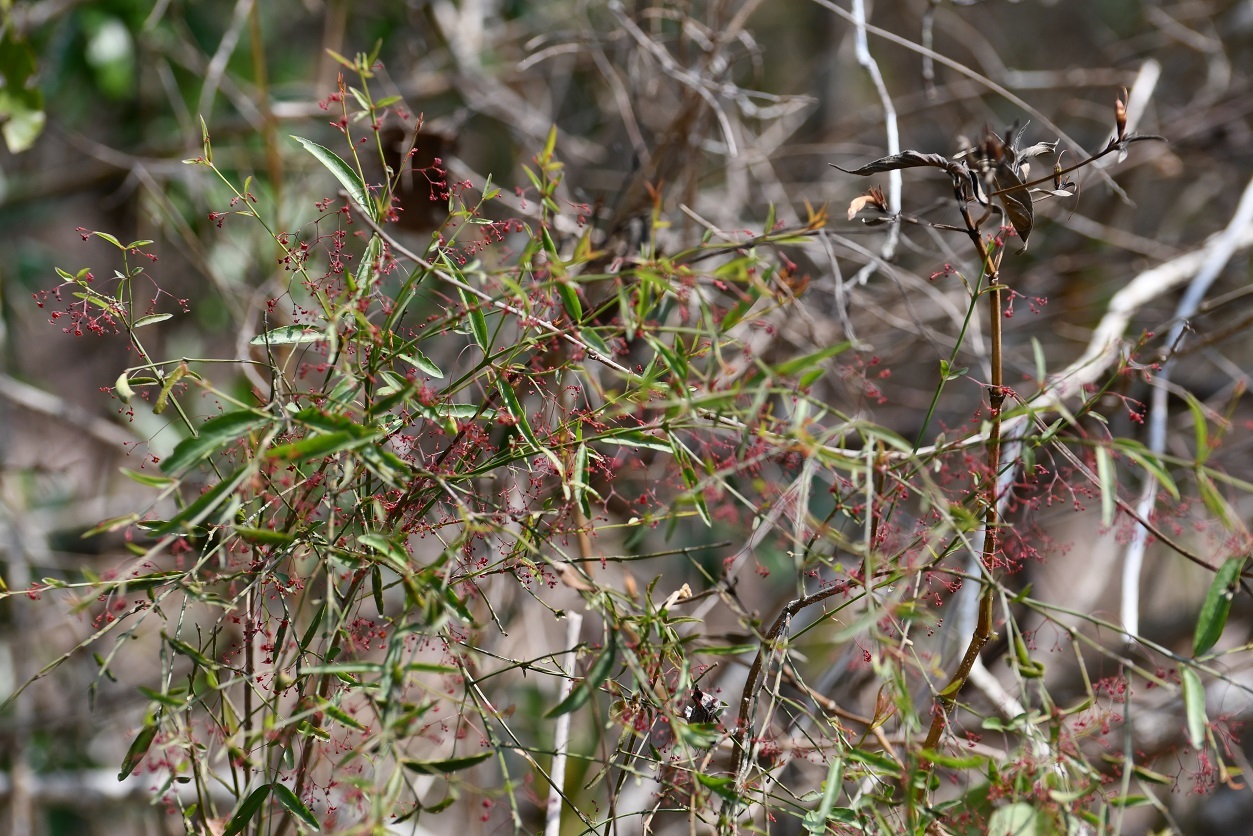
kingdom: Plantae
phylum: Tracheophyta
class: Magnoliopsida
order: Celastrales
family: Celastraceae
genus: Crossopetalum
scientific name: Crossopetalum uragoga
